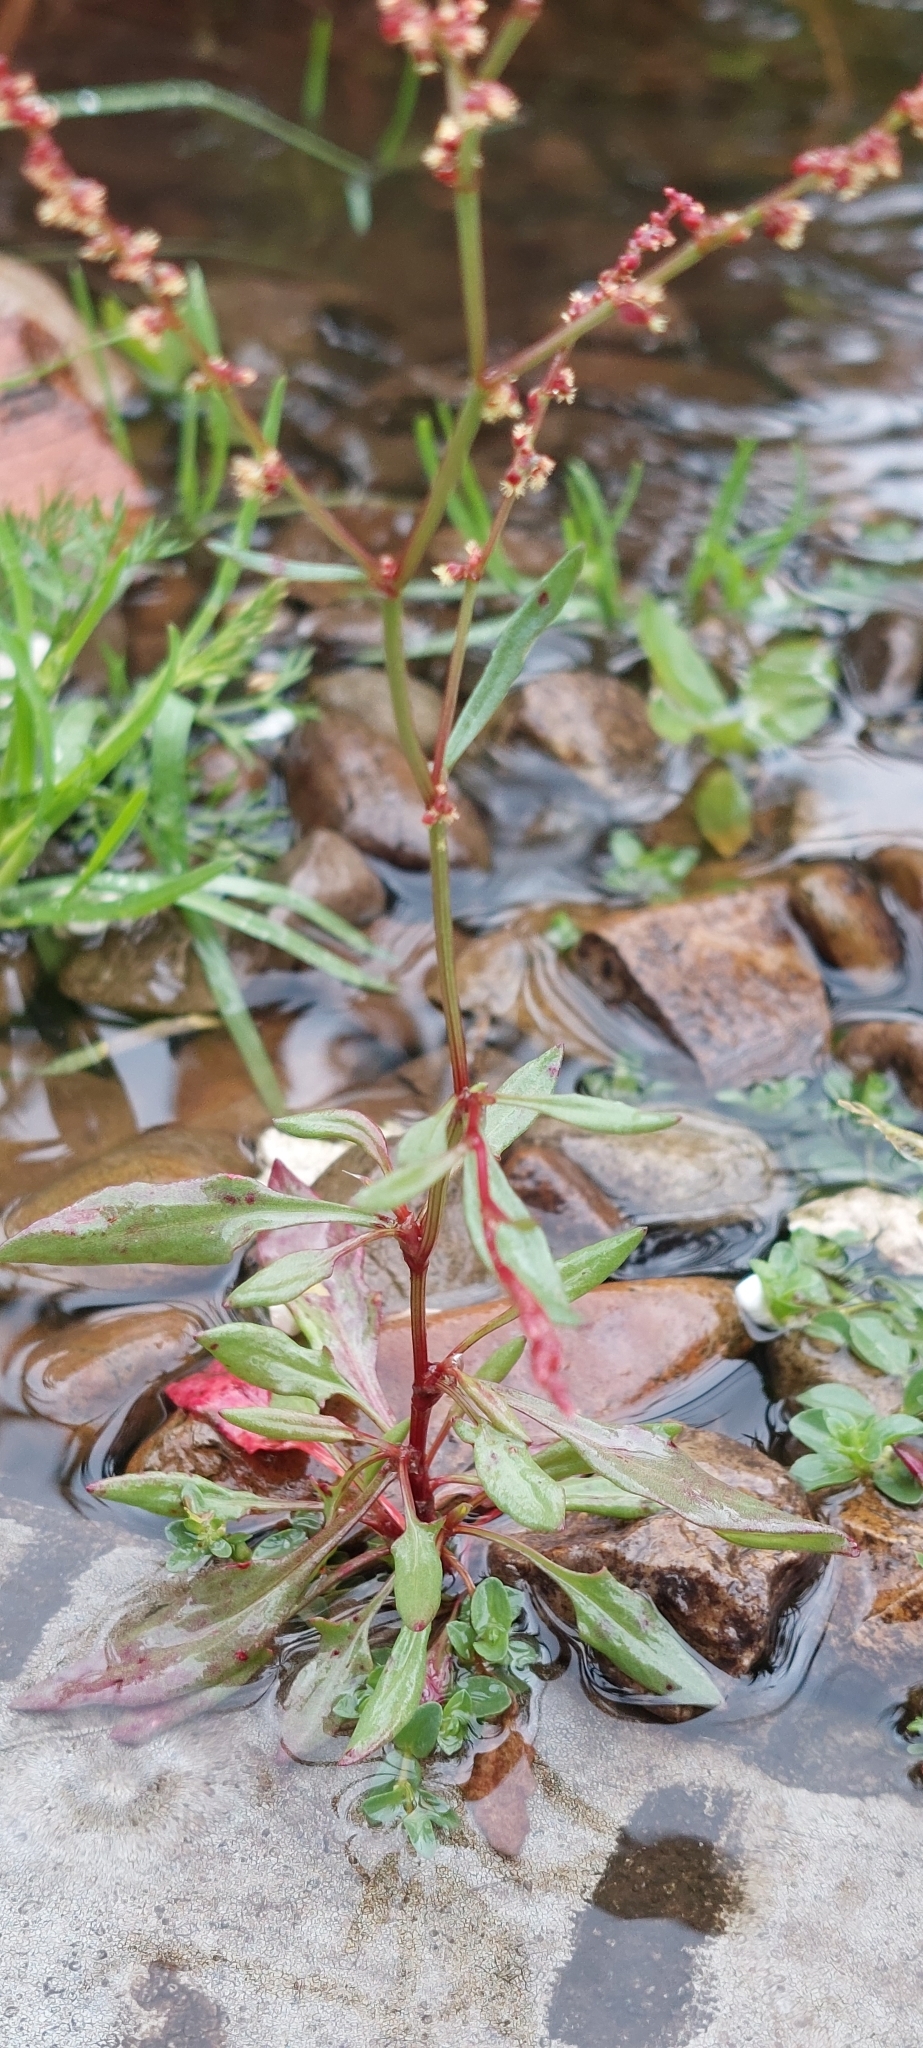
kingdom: Plantae
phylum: Tracheophyta
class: Magnoliopsida
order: Caryophyllales
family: Polygonaceae
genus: Rumex
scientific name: Rumex acetosella
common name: Common sheep sorrel
